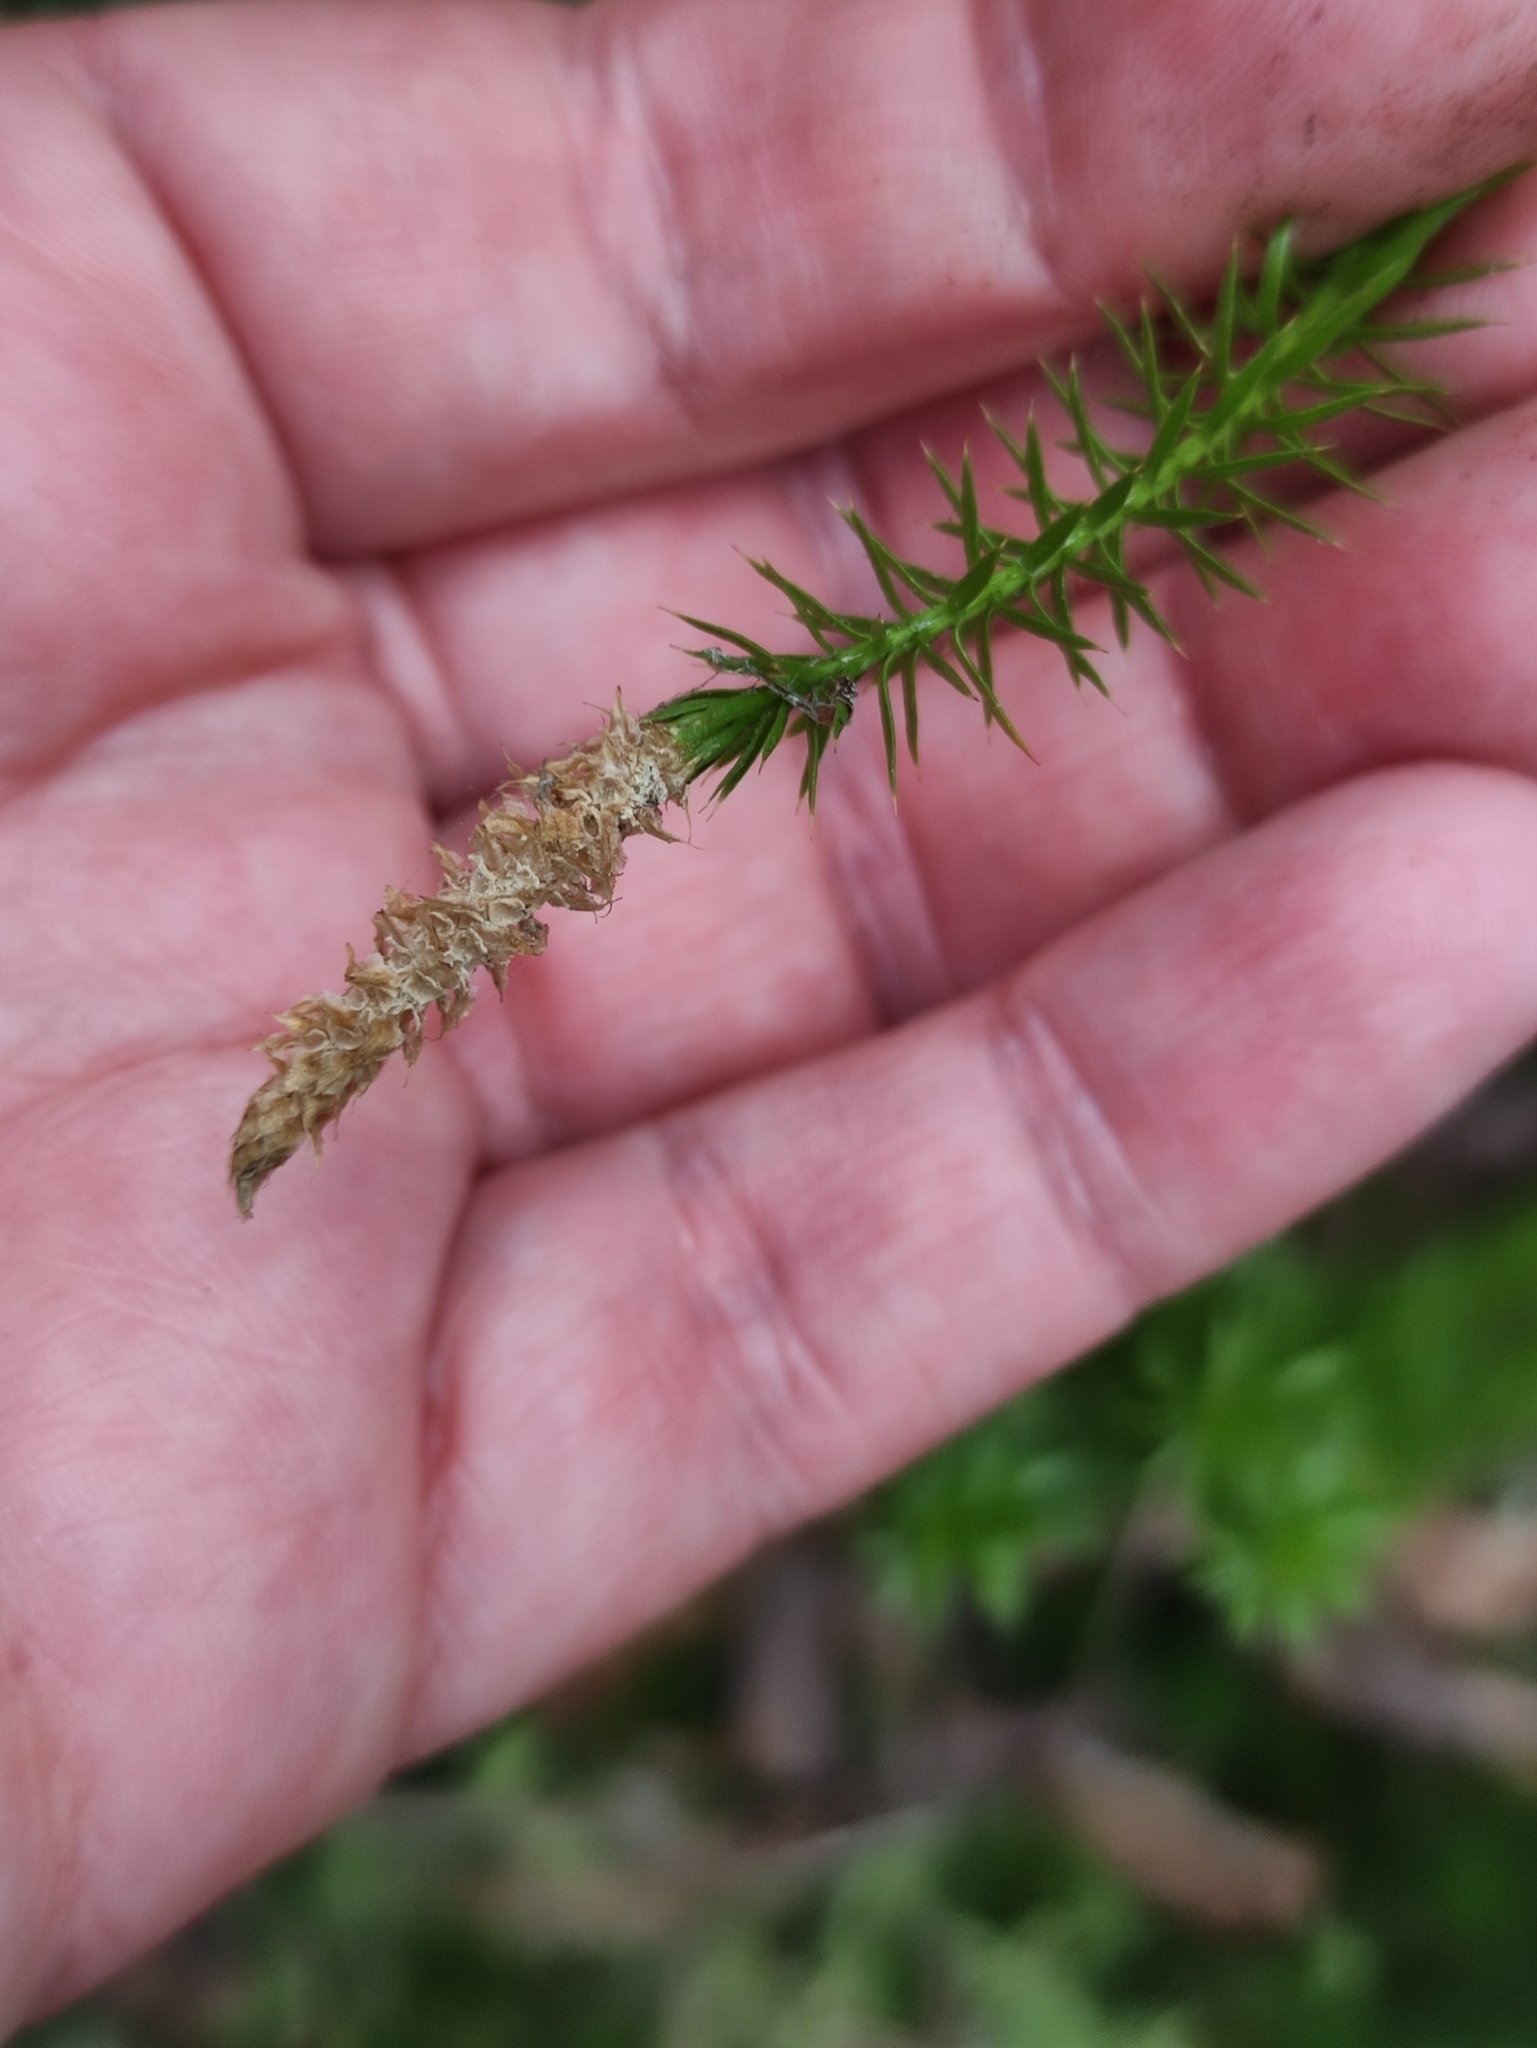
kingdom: Plantae
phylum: Tracheophyta
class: Lycopodiopsida
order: Lycopodiales
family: Lycopodiaceae
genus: Spinulum
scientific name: Spinulum annotinum
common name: Interrupted club-moss
